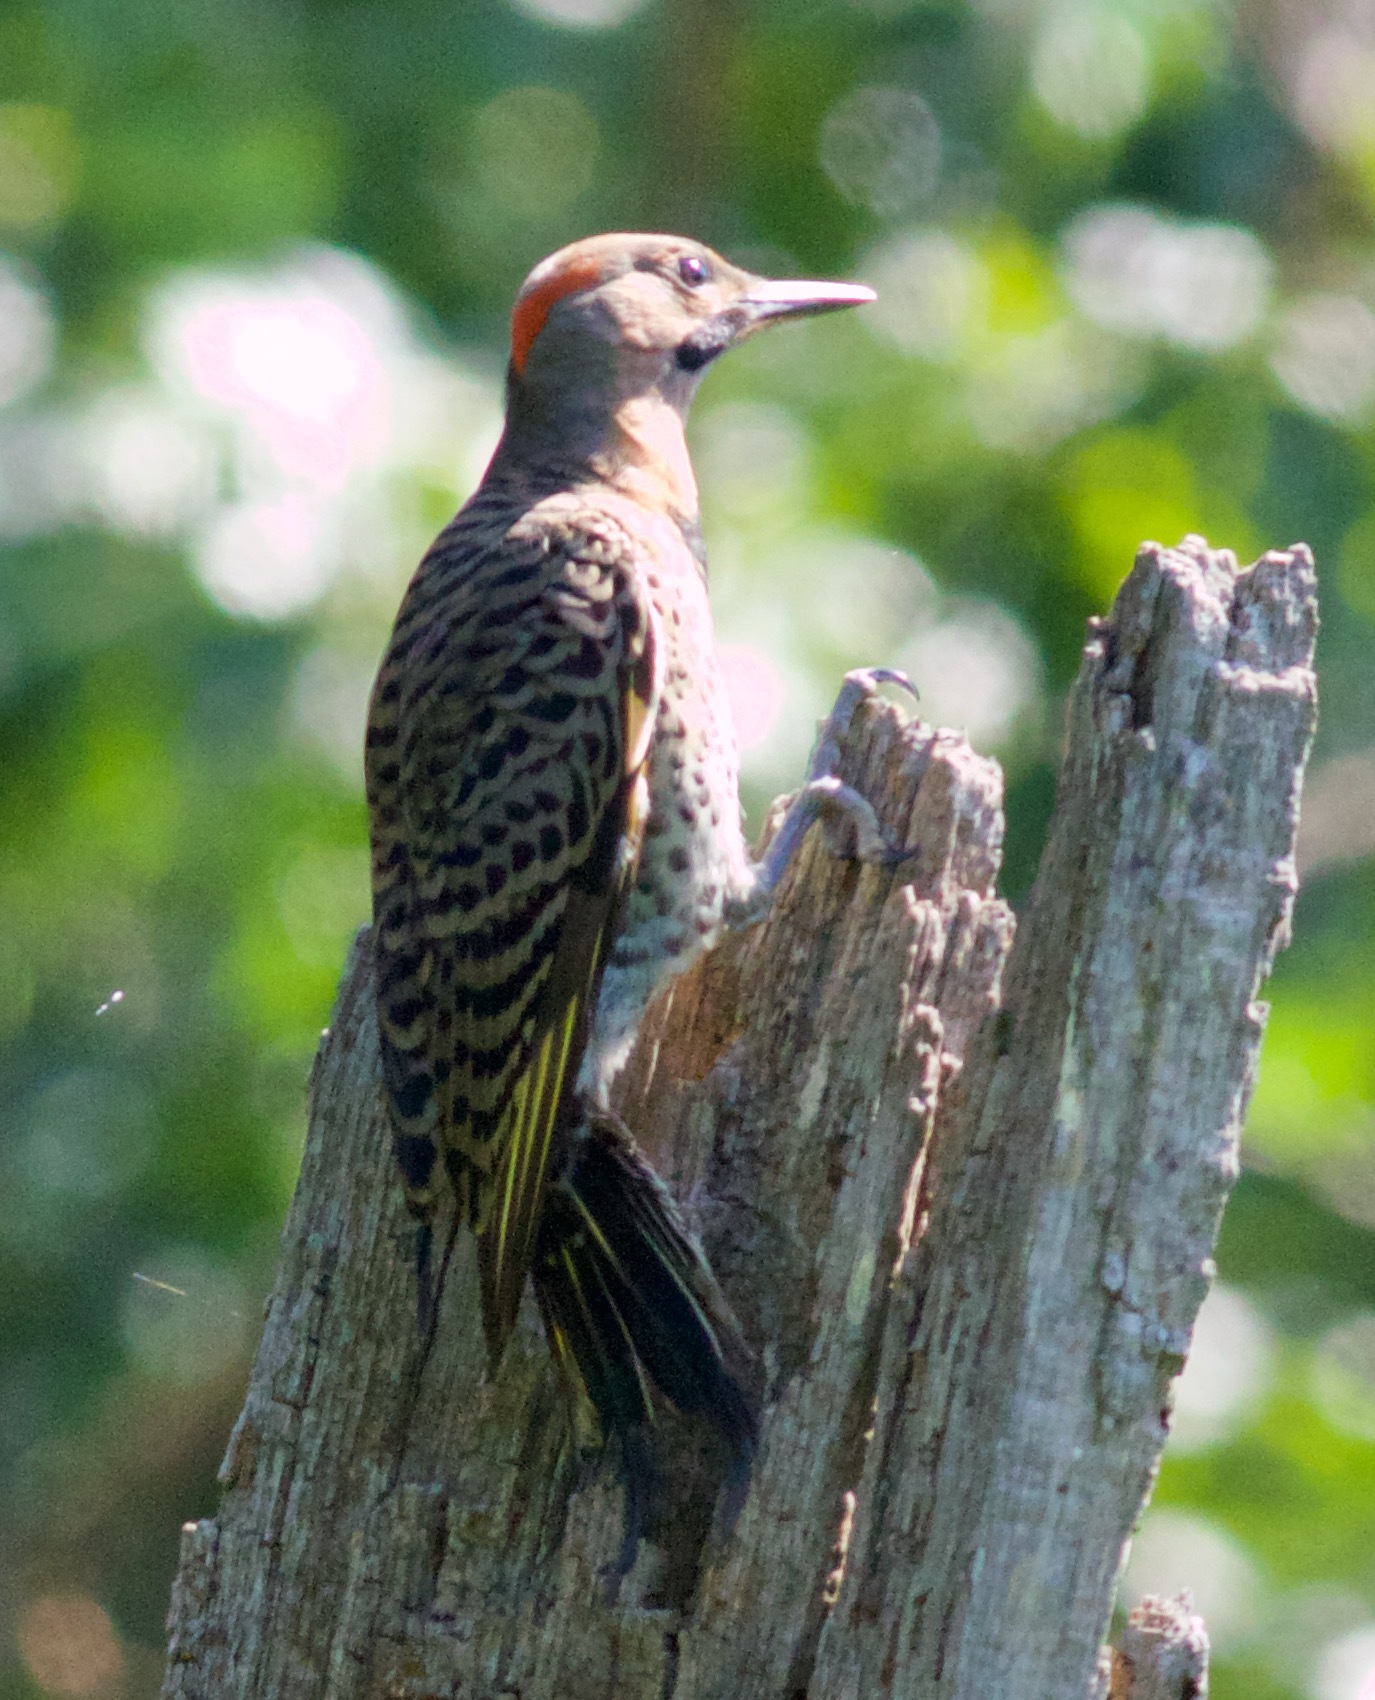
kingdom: Animalia
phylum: Chordata
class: Aves
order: Piciformes
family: Picidae
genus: Colaptes
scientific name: Colaptes auratus
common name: Northern flicker
